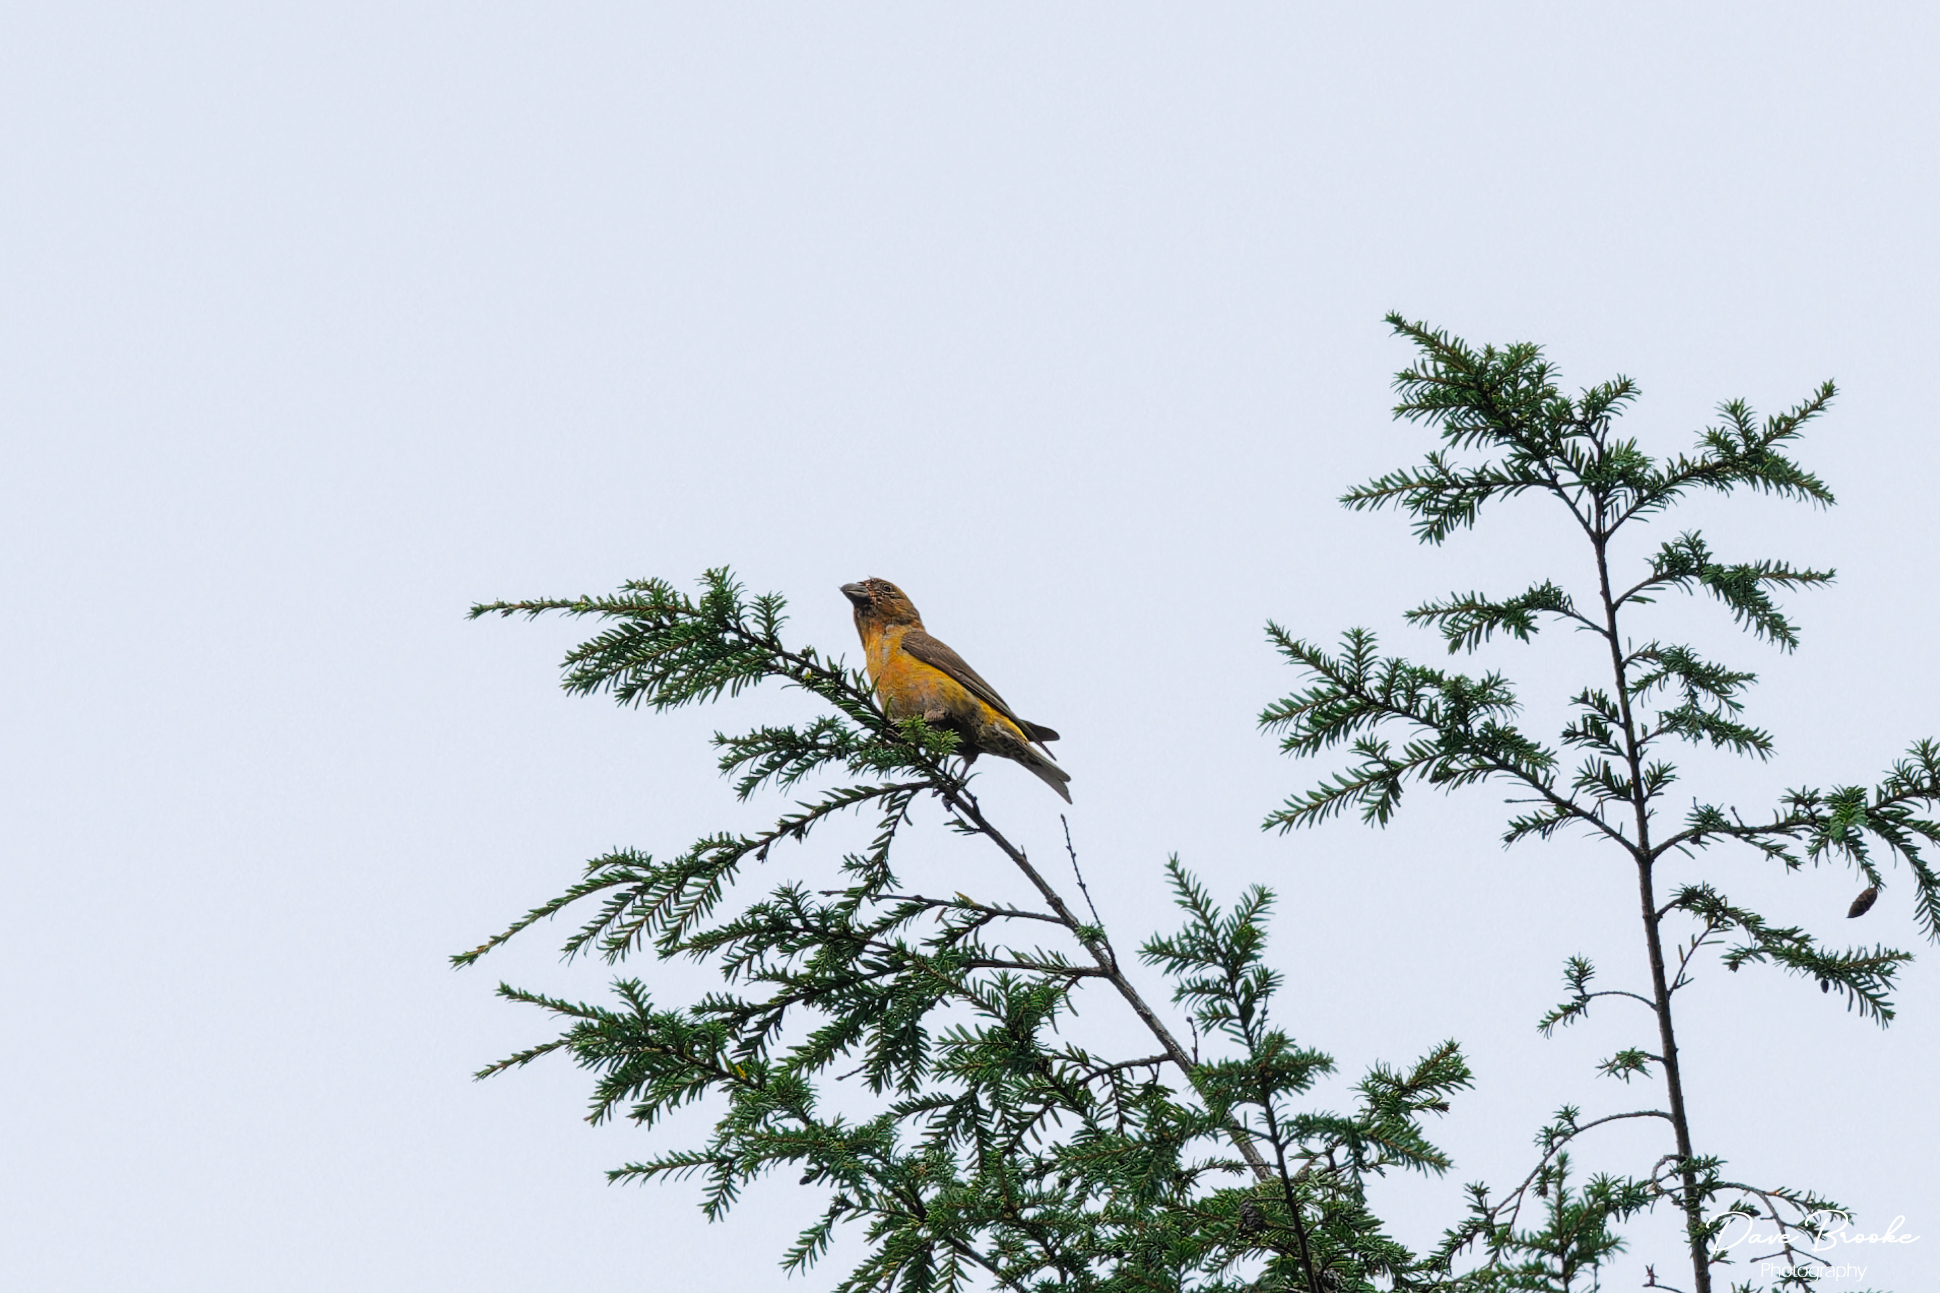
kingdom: Animalia
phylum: Chordata
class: Aves
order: Passeriformes
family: Fringillidae
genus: Loxia
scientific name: Loxia curvirostra
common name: Red crossbill
